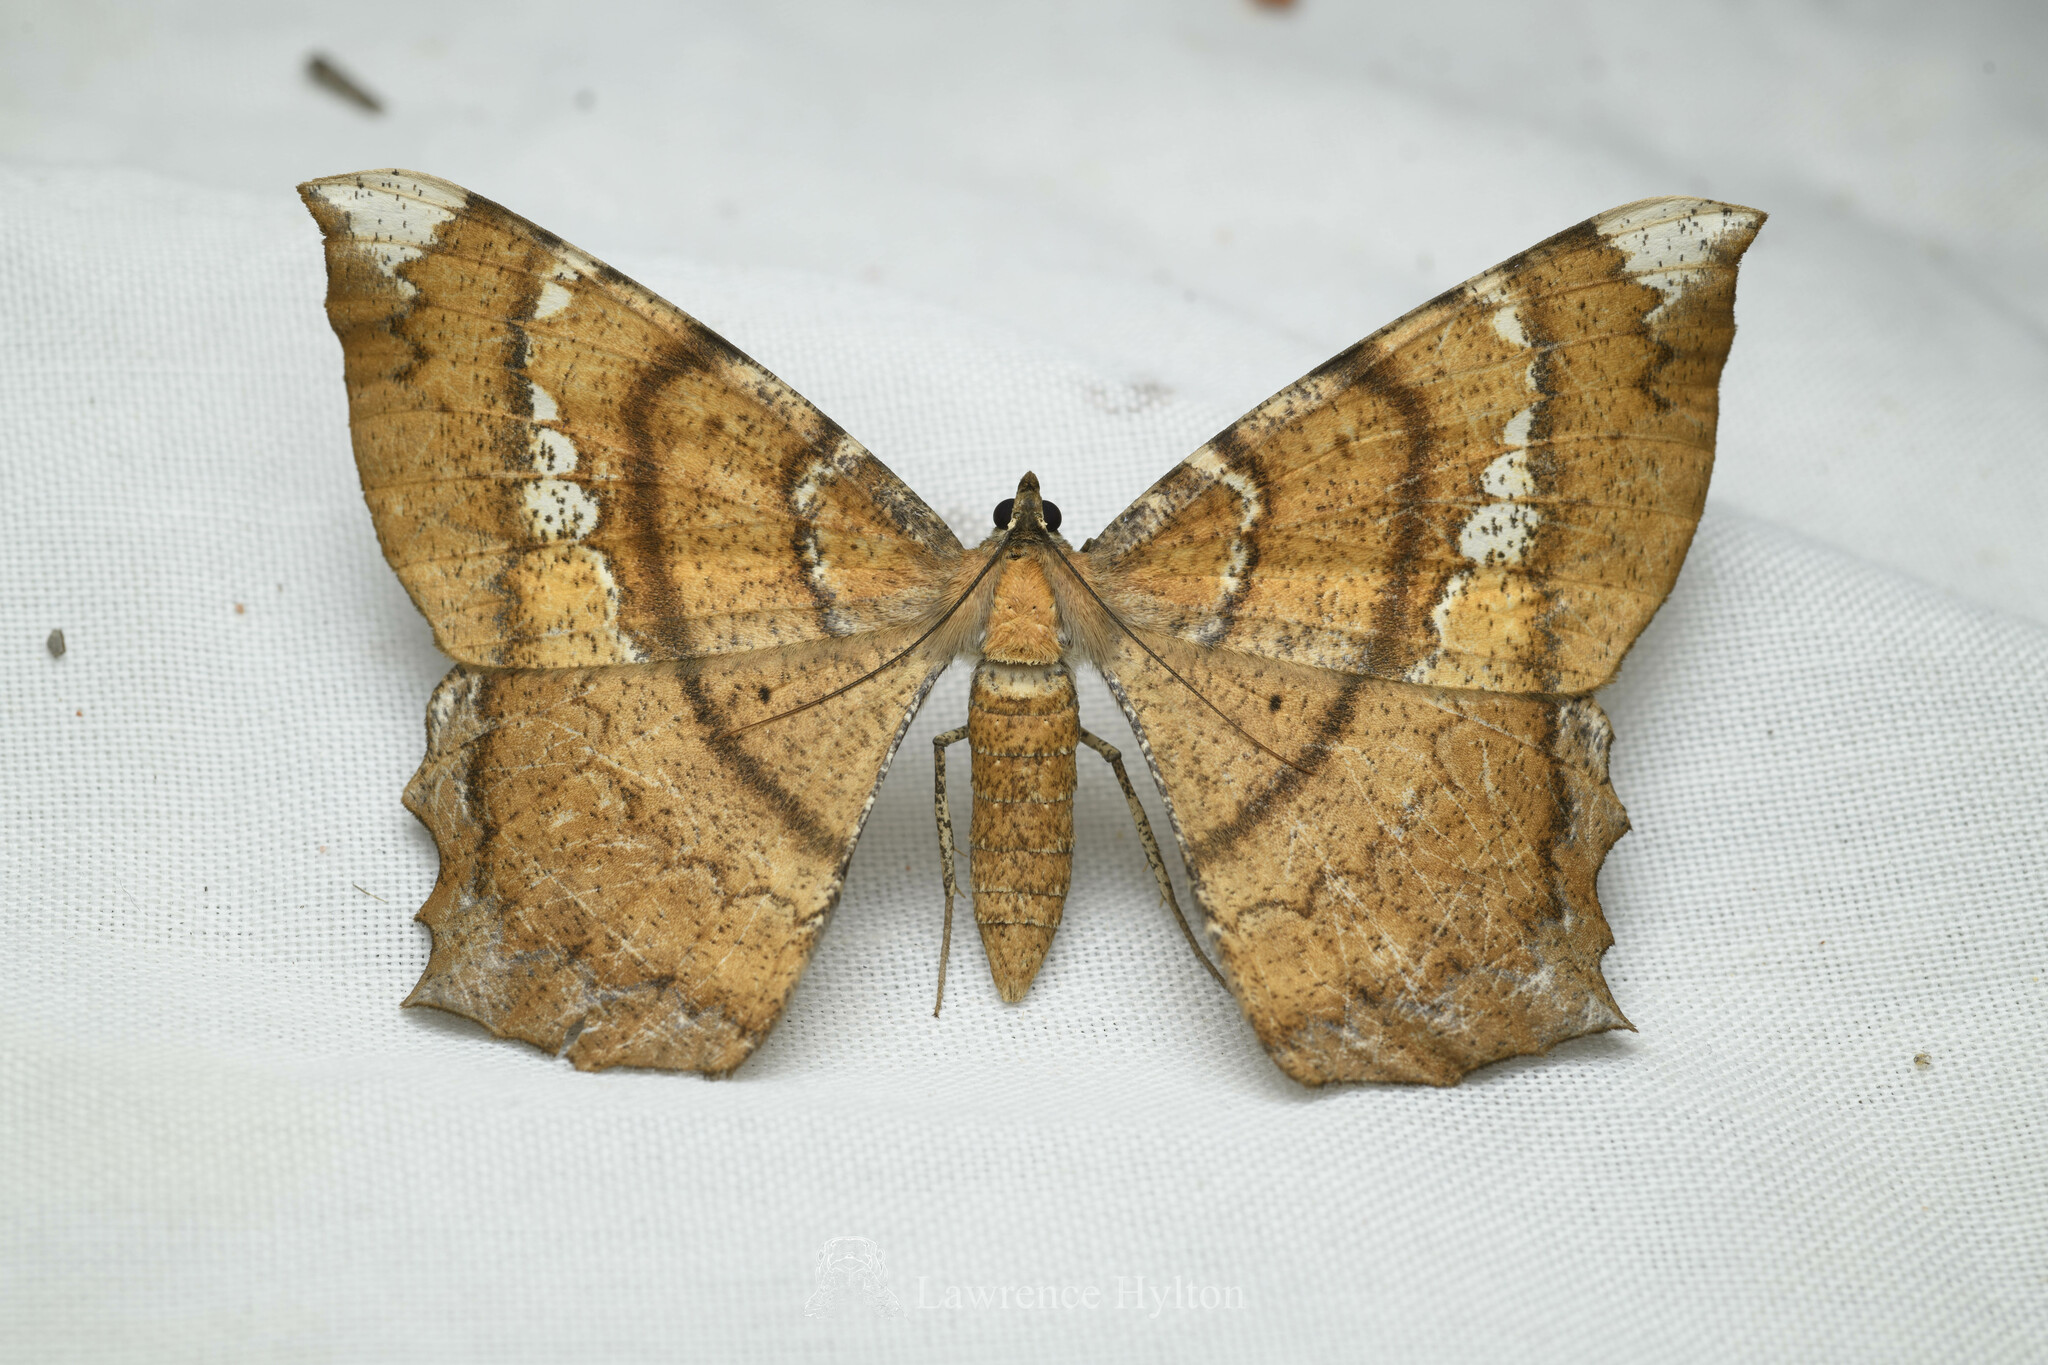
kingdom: Animalia
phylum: Arthropoda
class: Insecta
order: Lepidoptera
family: Geometridae
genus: Amblychia
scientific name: Amblychia angeronaria
